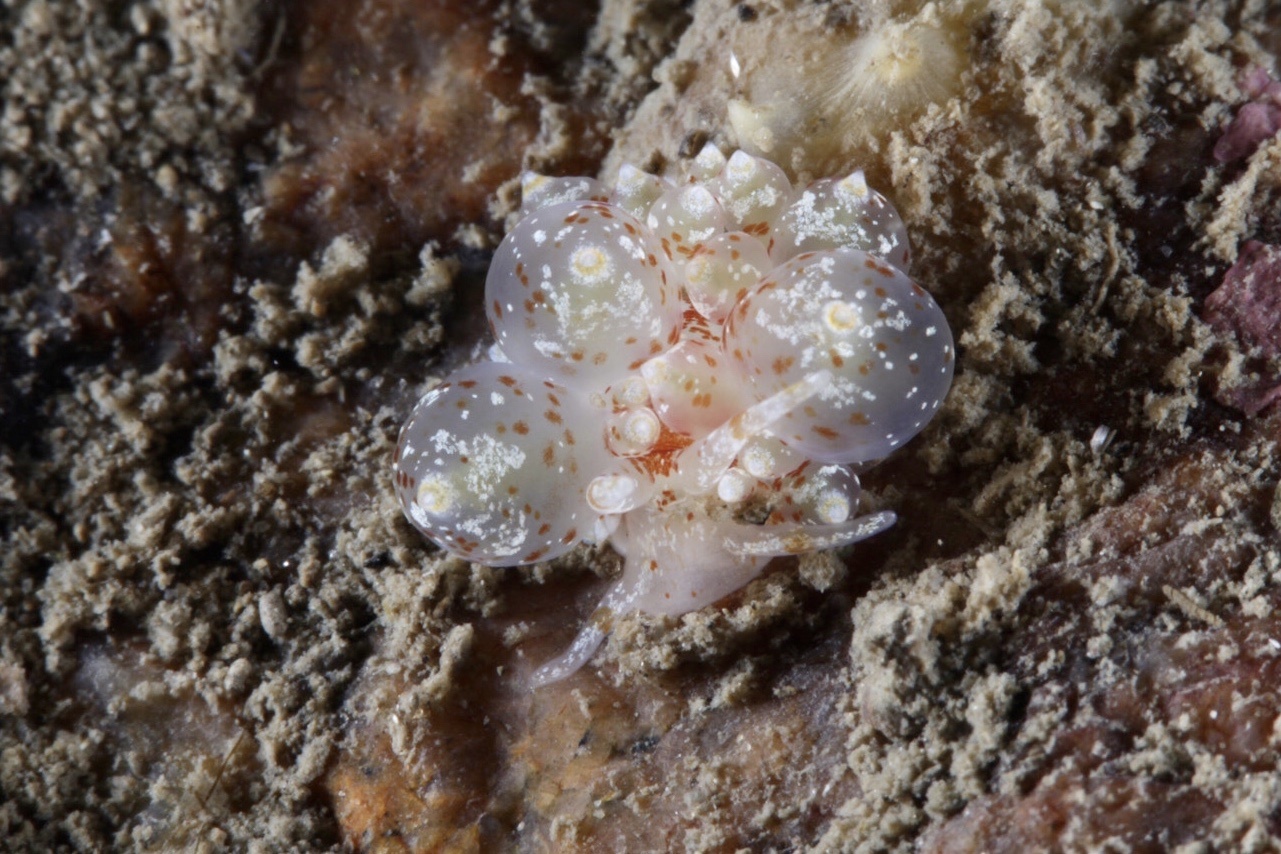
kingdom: Animalia
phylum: Mollusca
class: Gastropoda
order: Nudibranchia
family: Eubranchidae
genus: Amphorina
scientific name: Amphorina pallida
